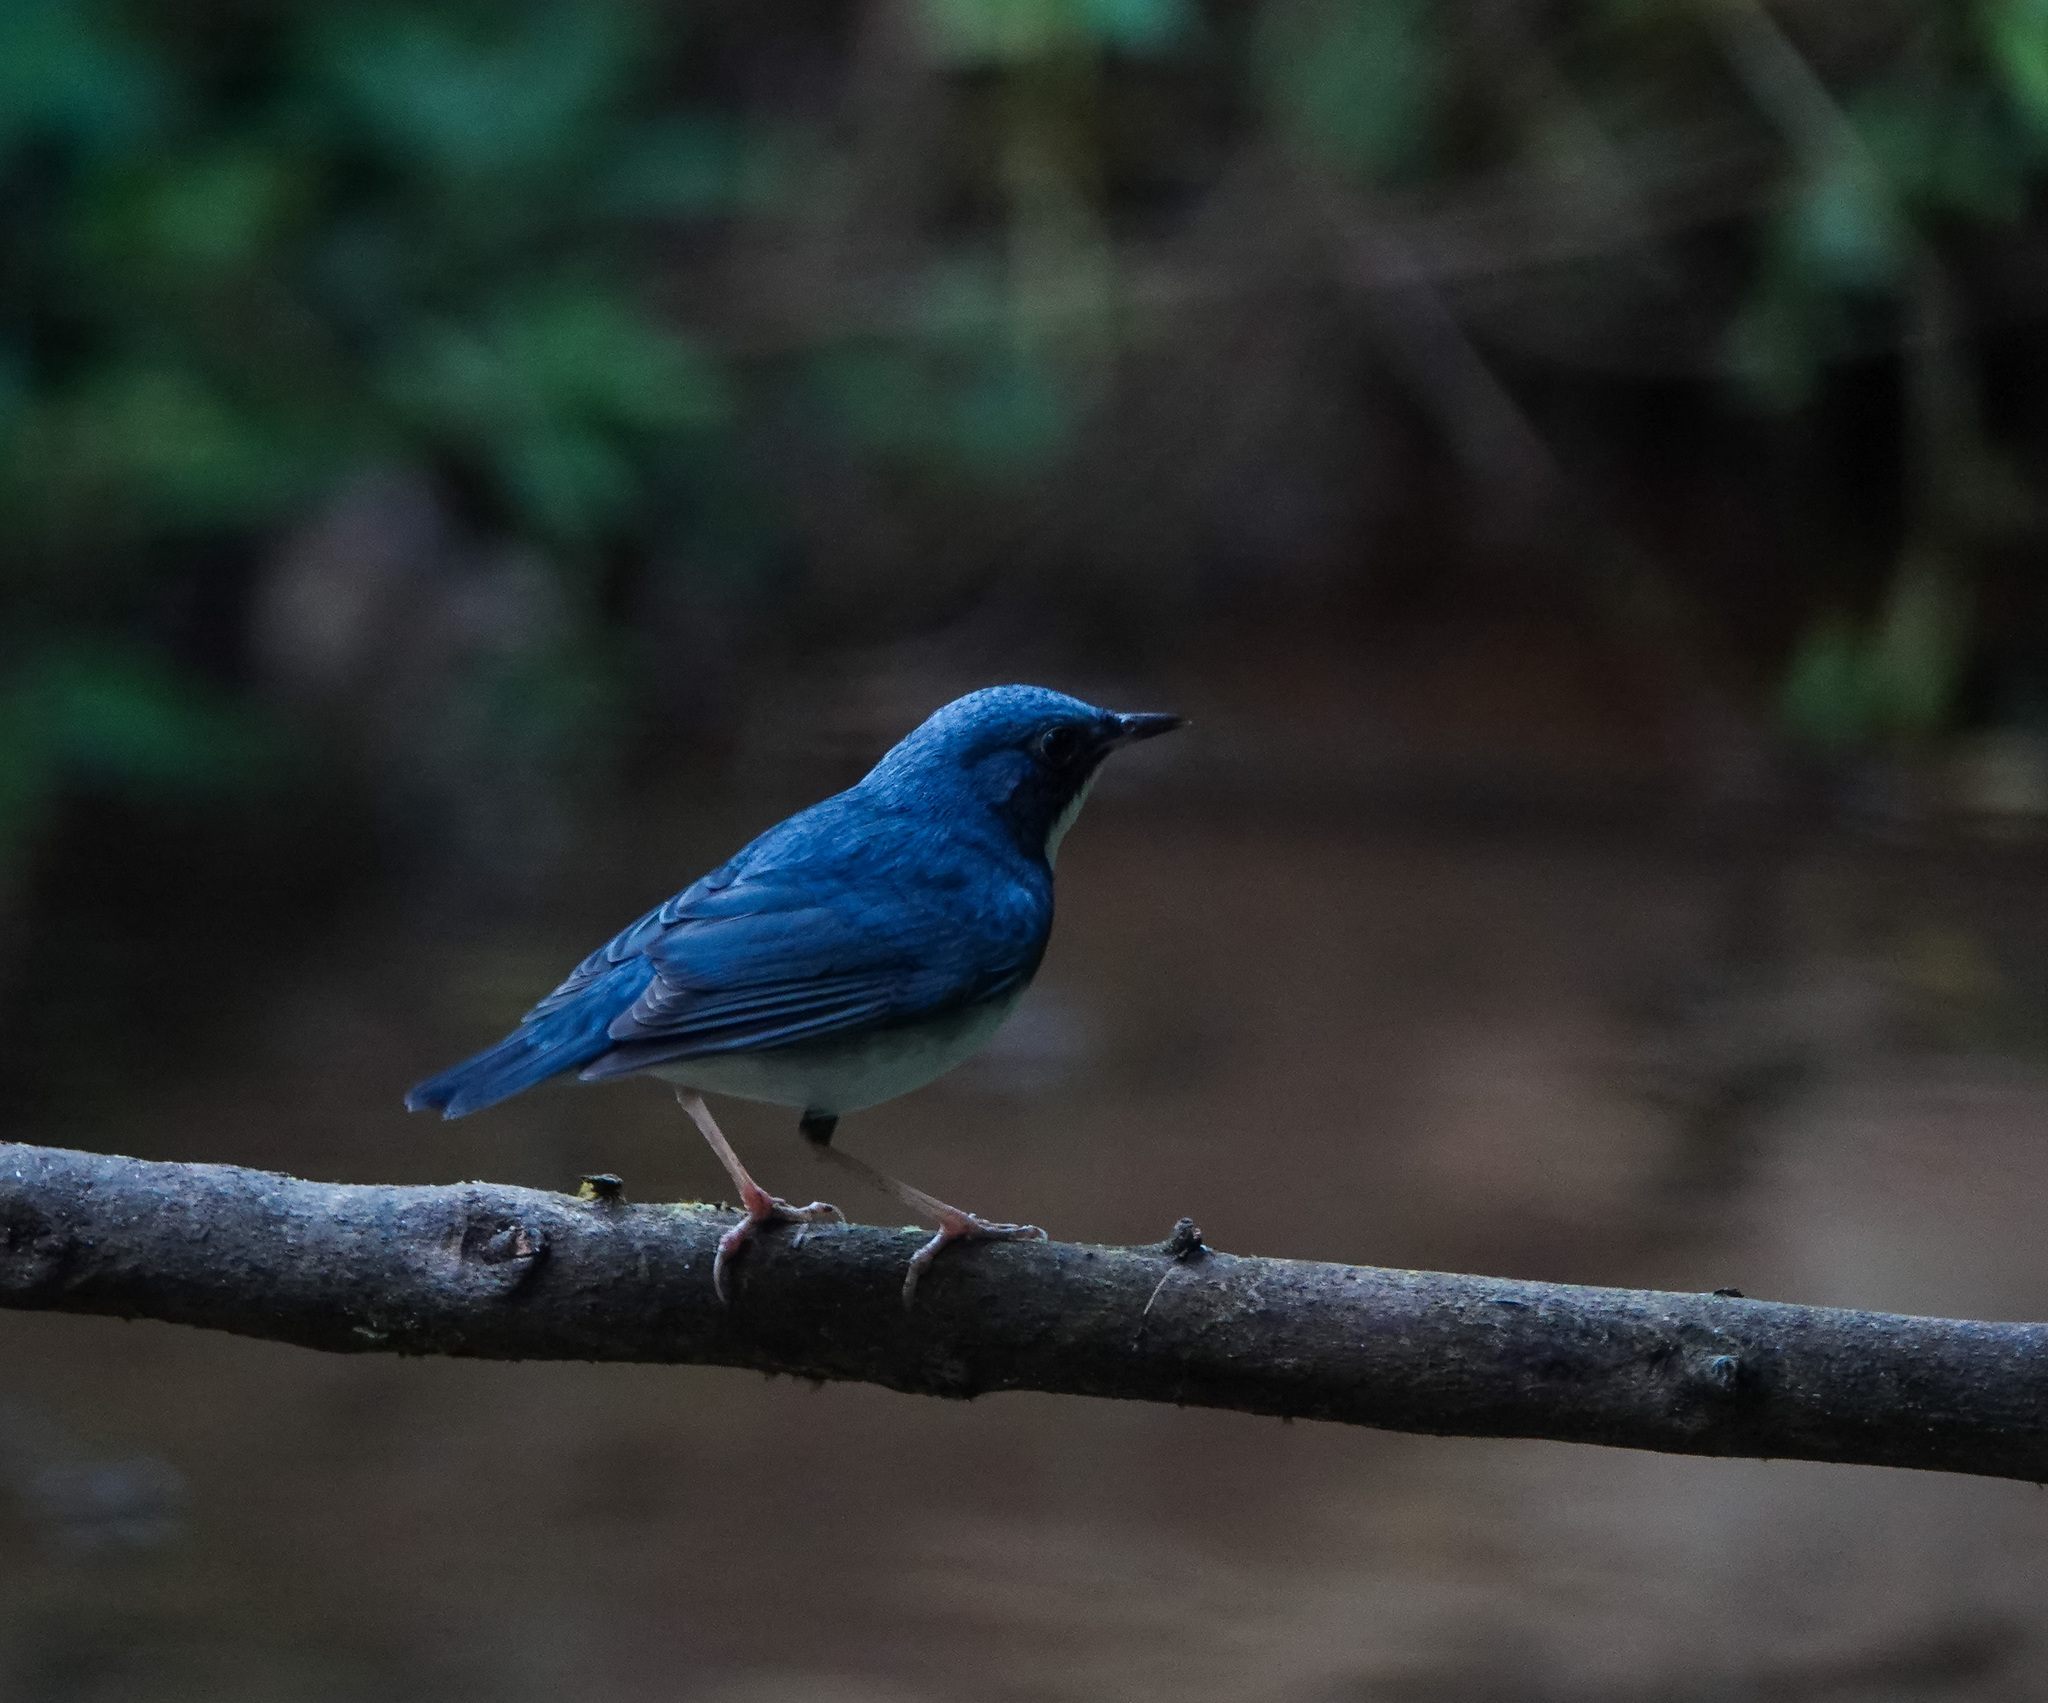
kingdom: Animalia
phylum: Chordata
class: Aves
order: Passeriformes
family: Muscicapidae
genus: Luscinia
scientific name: Luscinia cyane
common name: Siberian blue robin
